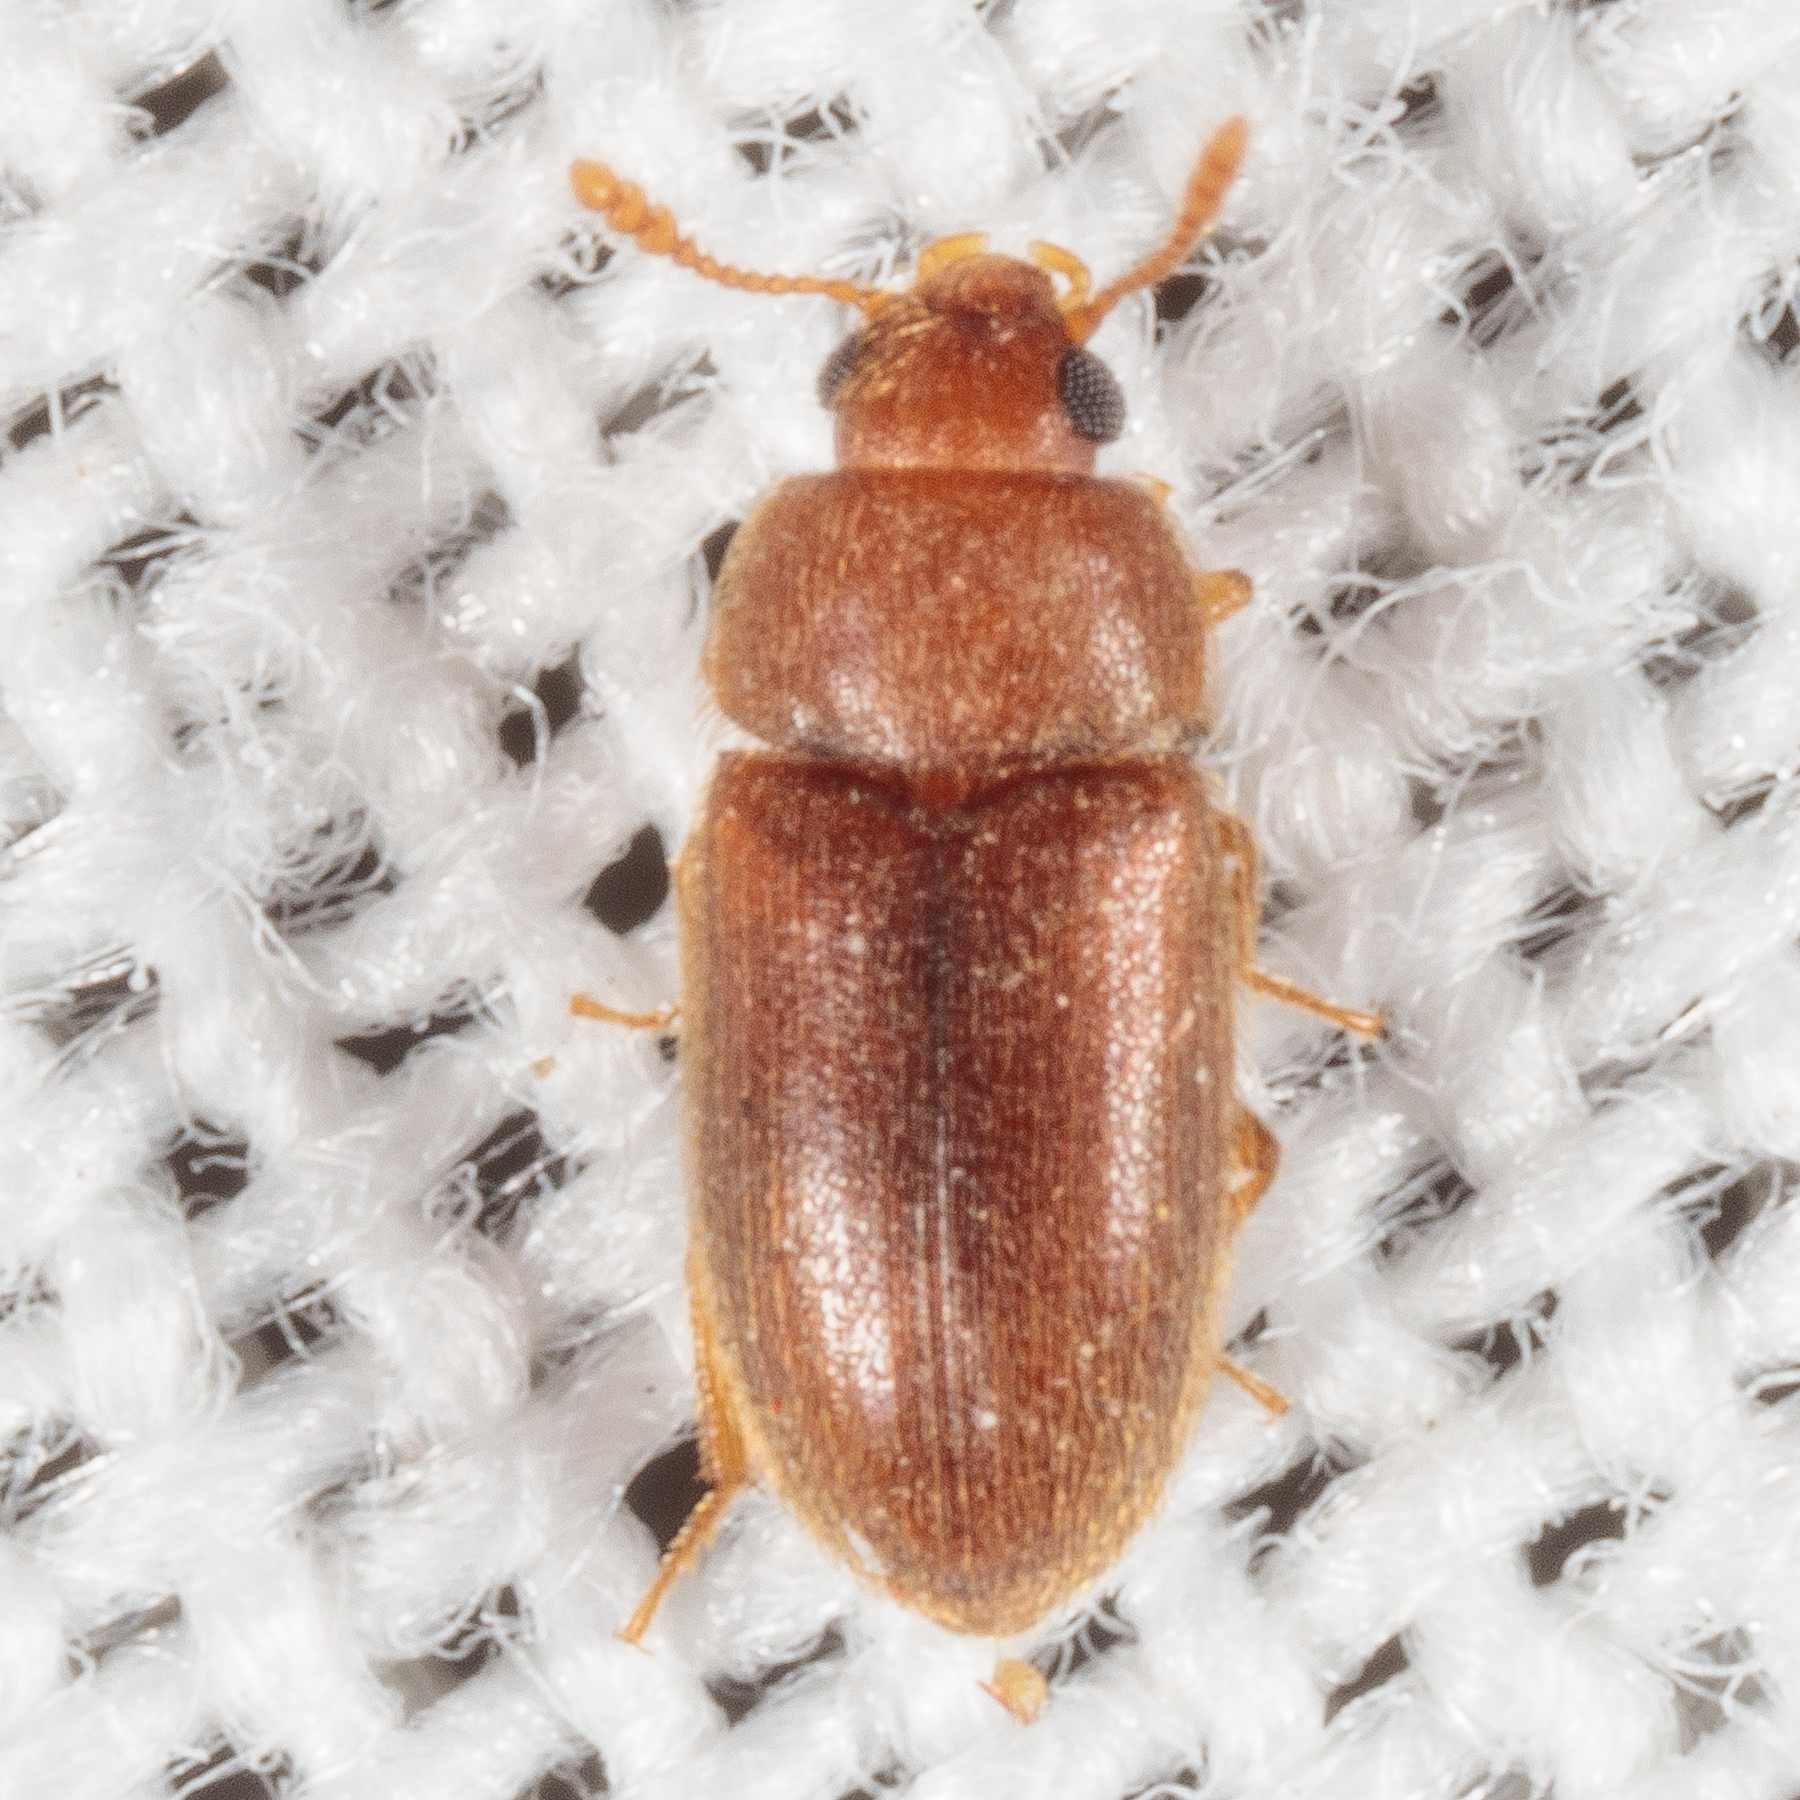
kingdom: Animalia
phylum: Arthropoda
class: Insecta
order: Coleoptera
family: Mycetophagidae
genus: Typhaea
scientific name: Typhaea stercorea
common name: Hairy fungus beetle
